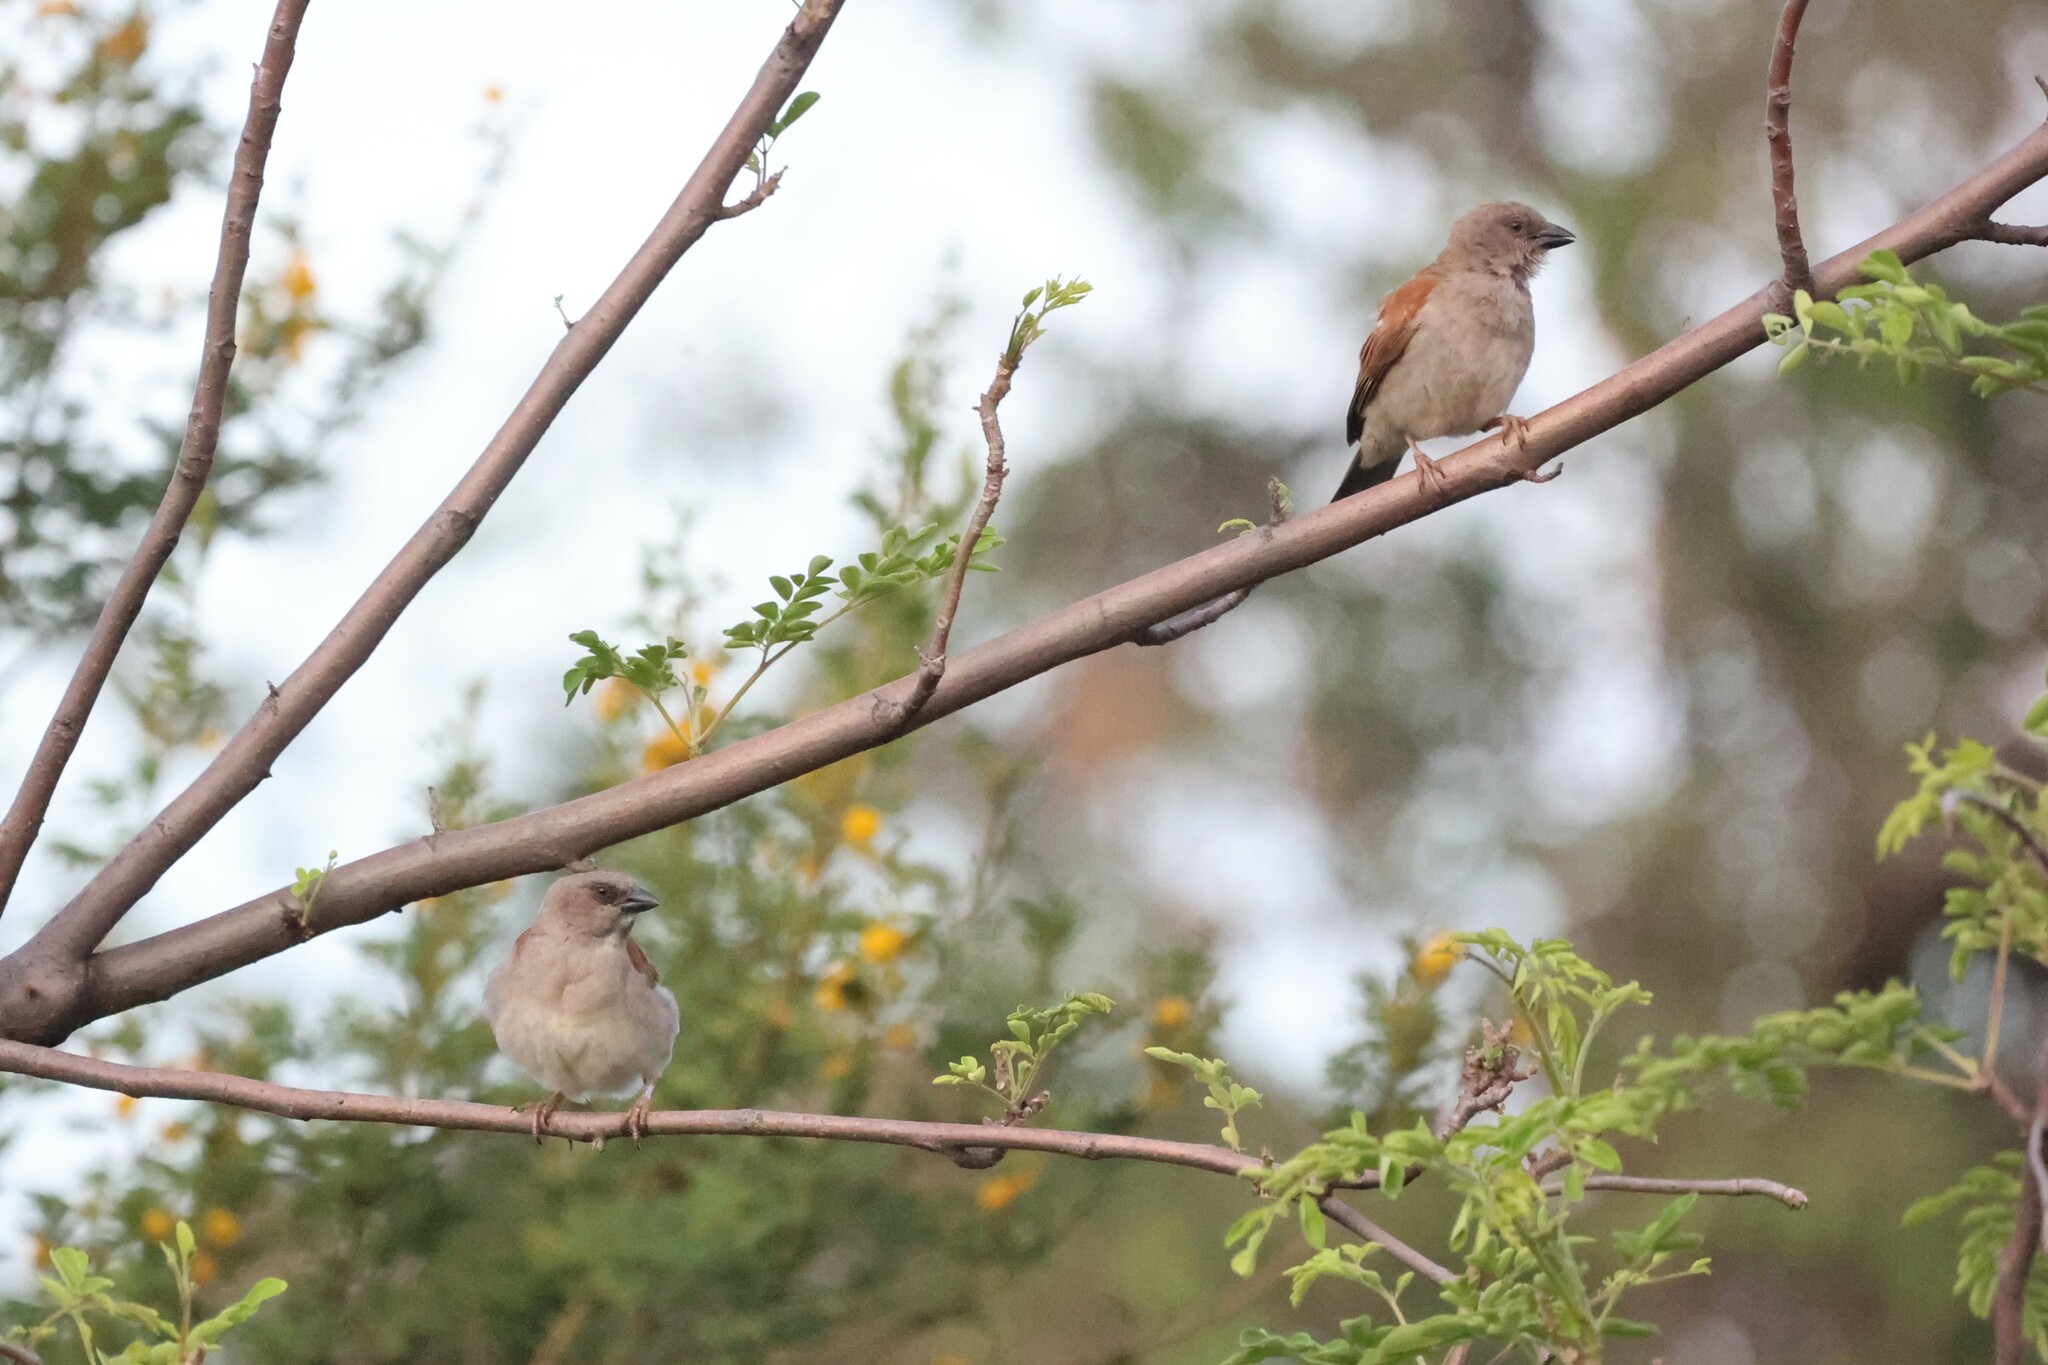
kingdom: Animalia
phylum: Chordata
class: Aves
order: Passeriformes
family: Passeridae
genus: Passer
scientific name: Passer griseus
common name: Northern grey-headed sparrow
